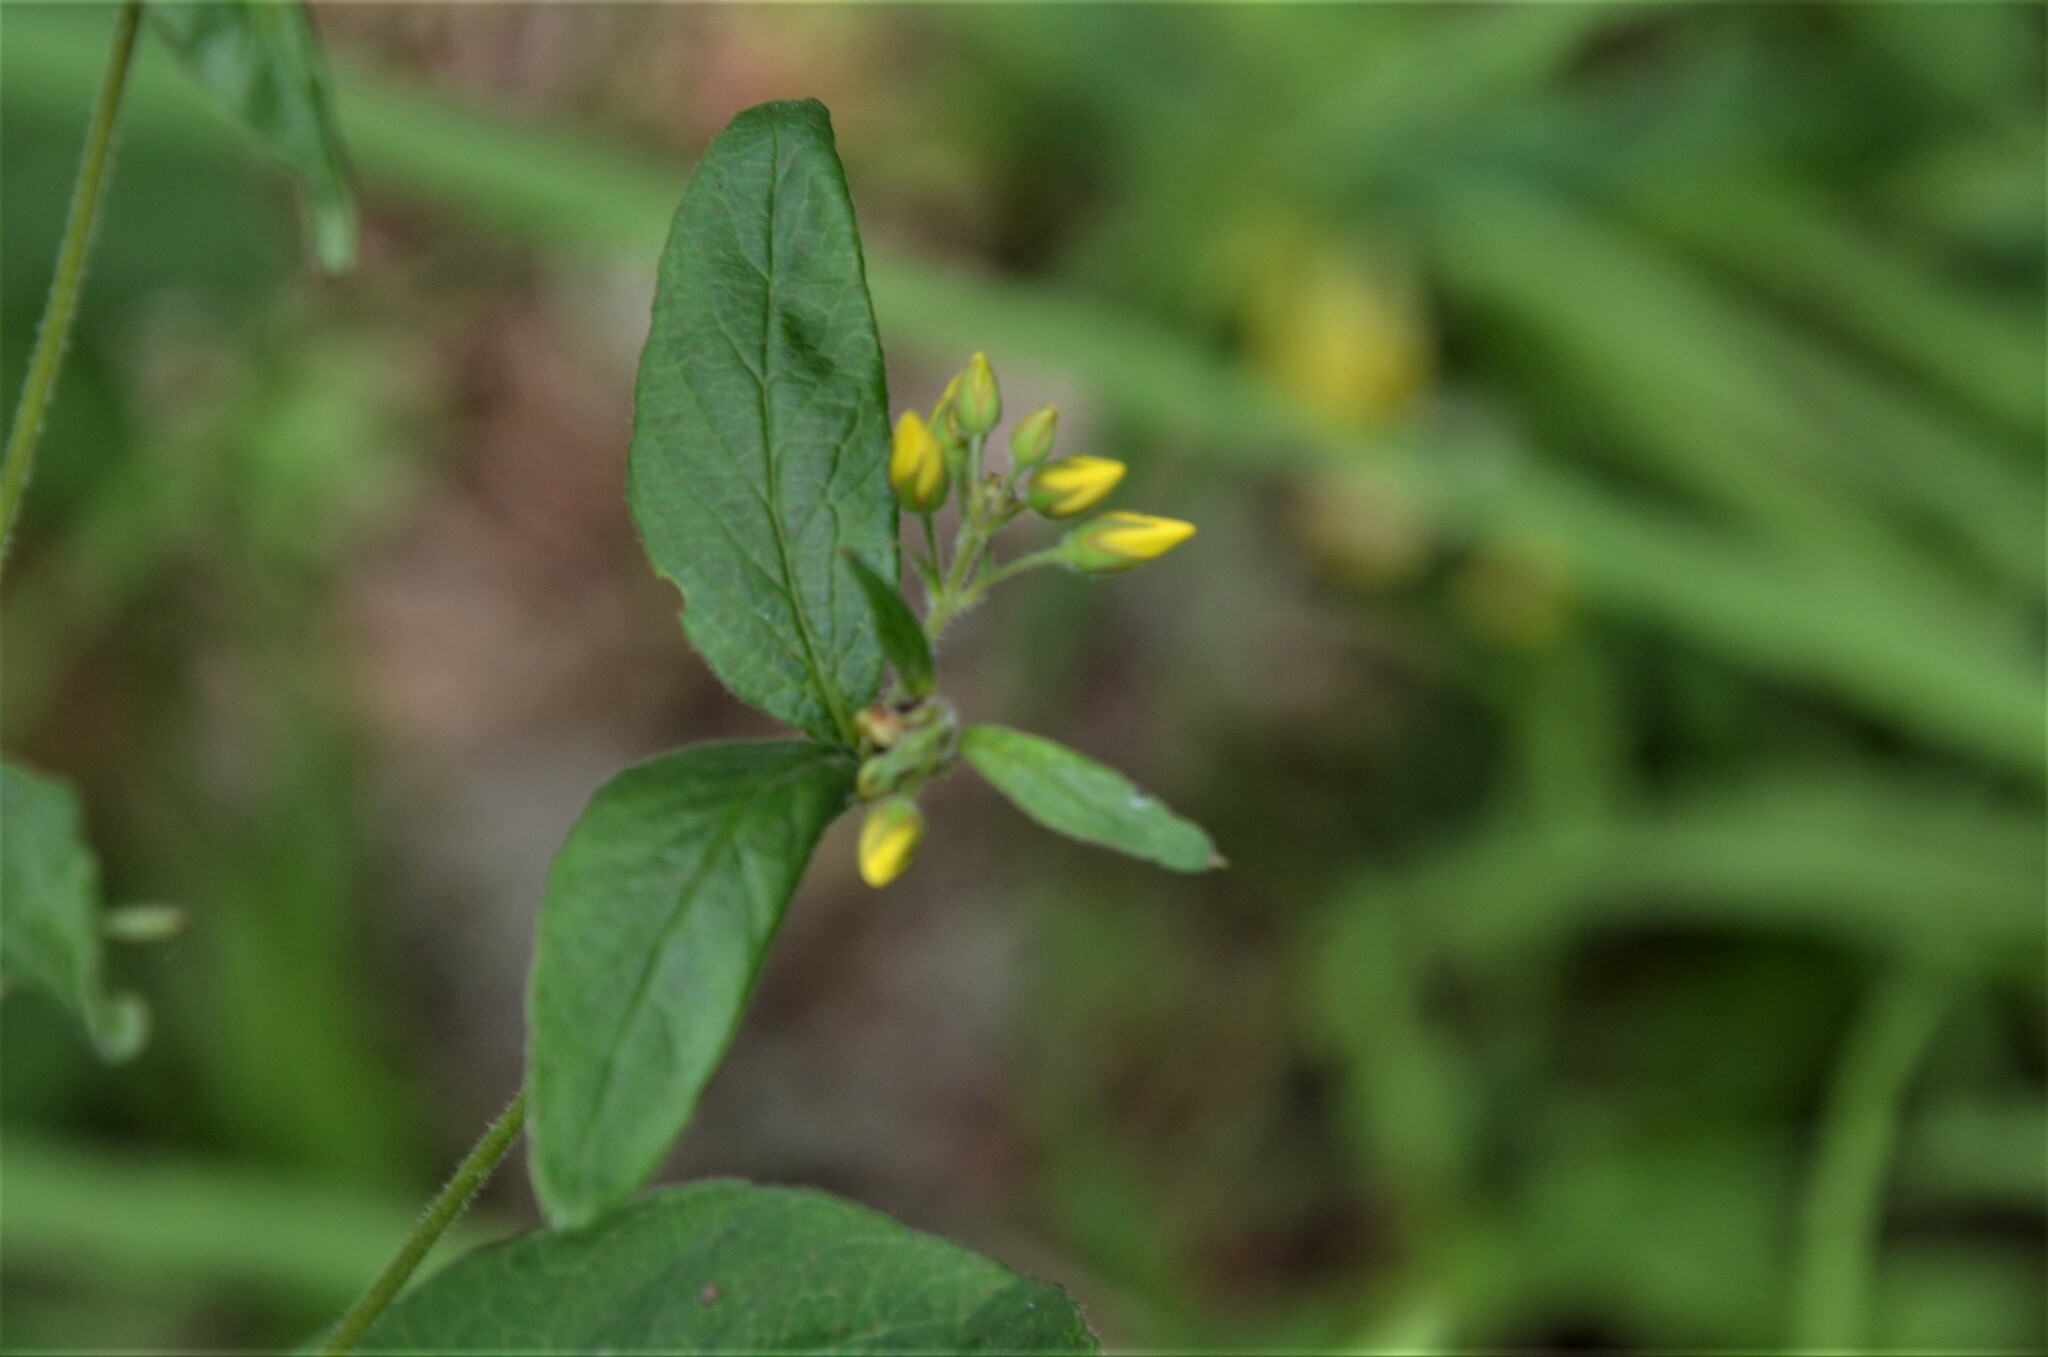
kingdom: Plantae
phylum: Tracheophyta
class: Magnoliopsida
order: Ericales
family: Primulaceae
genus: Lysimachia
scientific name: Lysimachia vulgaris
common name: Yellow loosestrife
